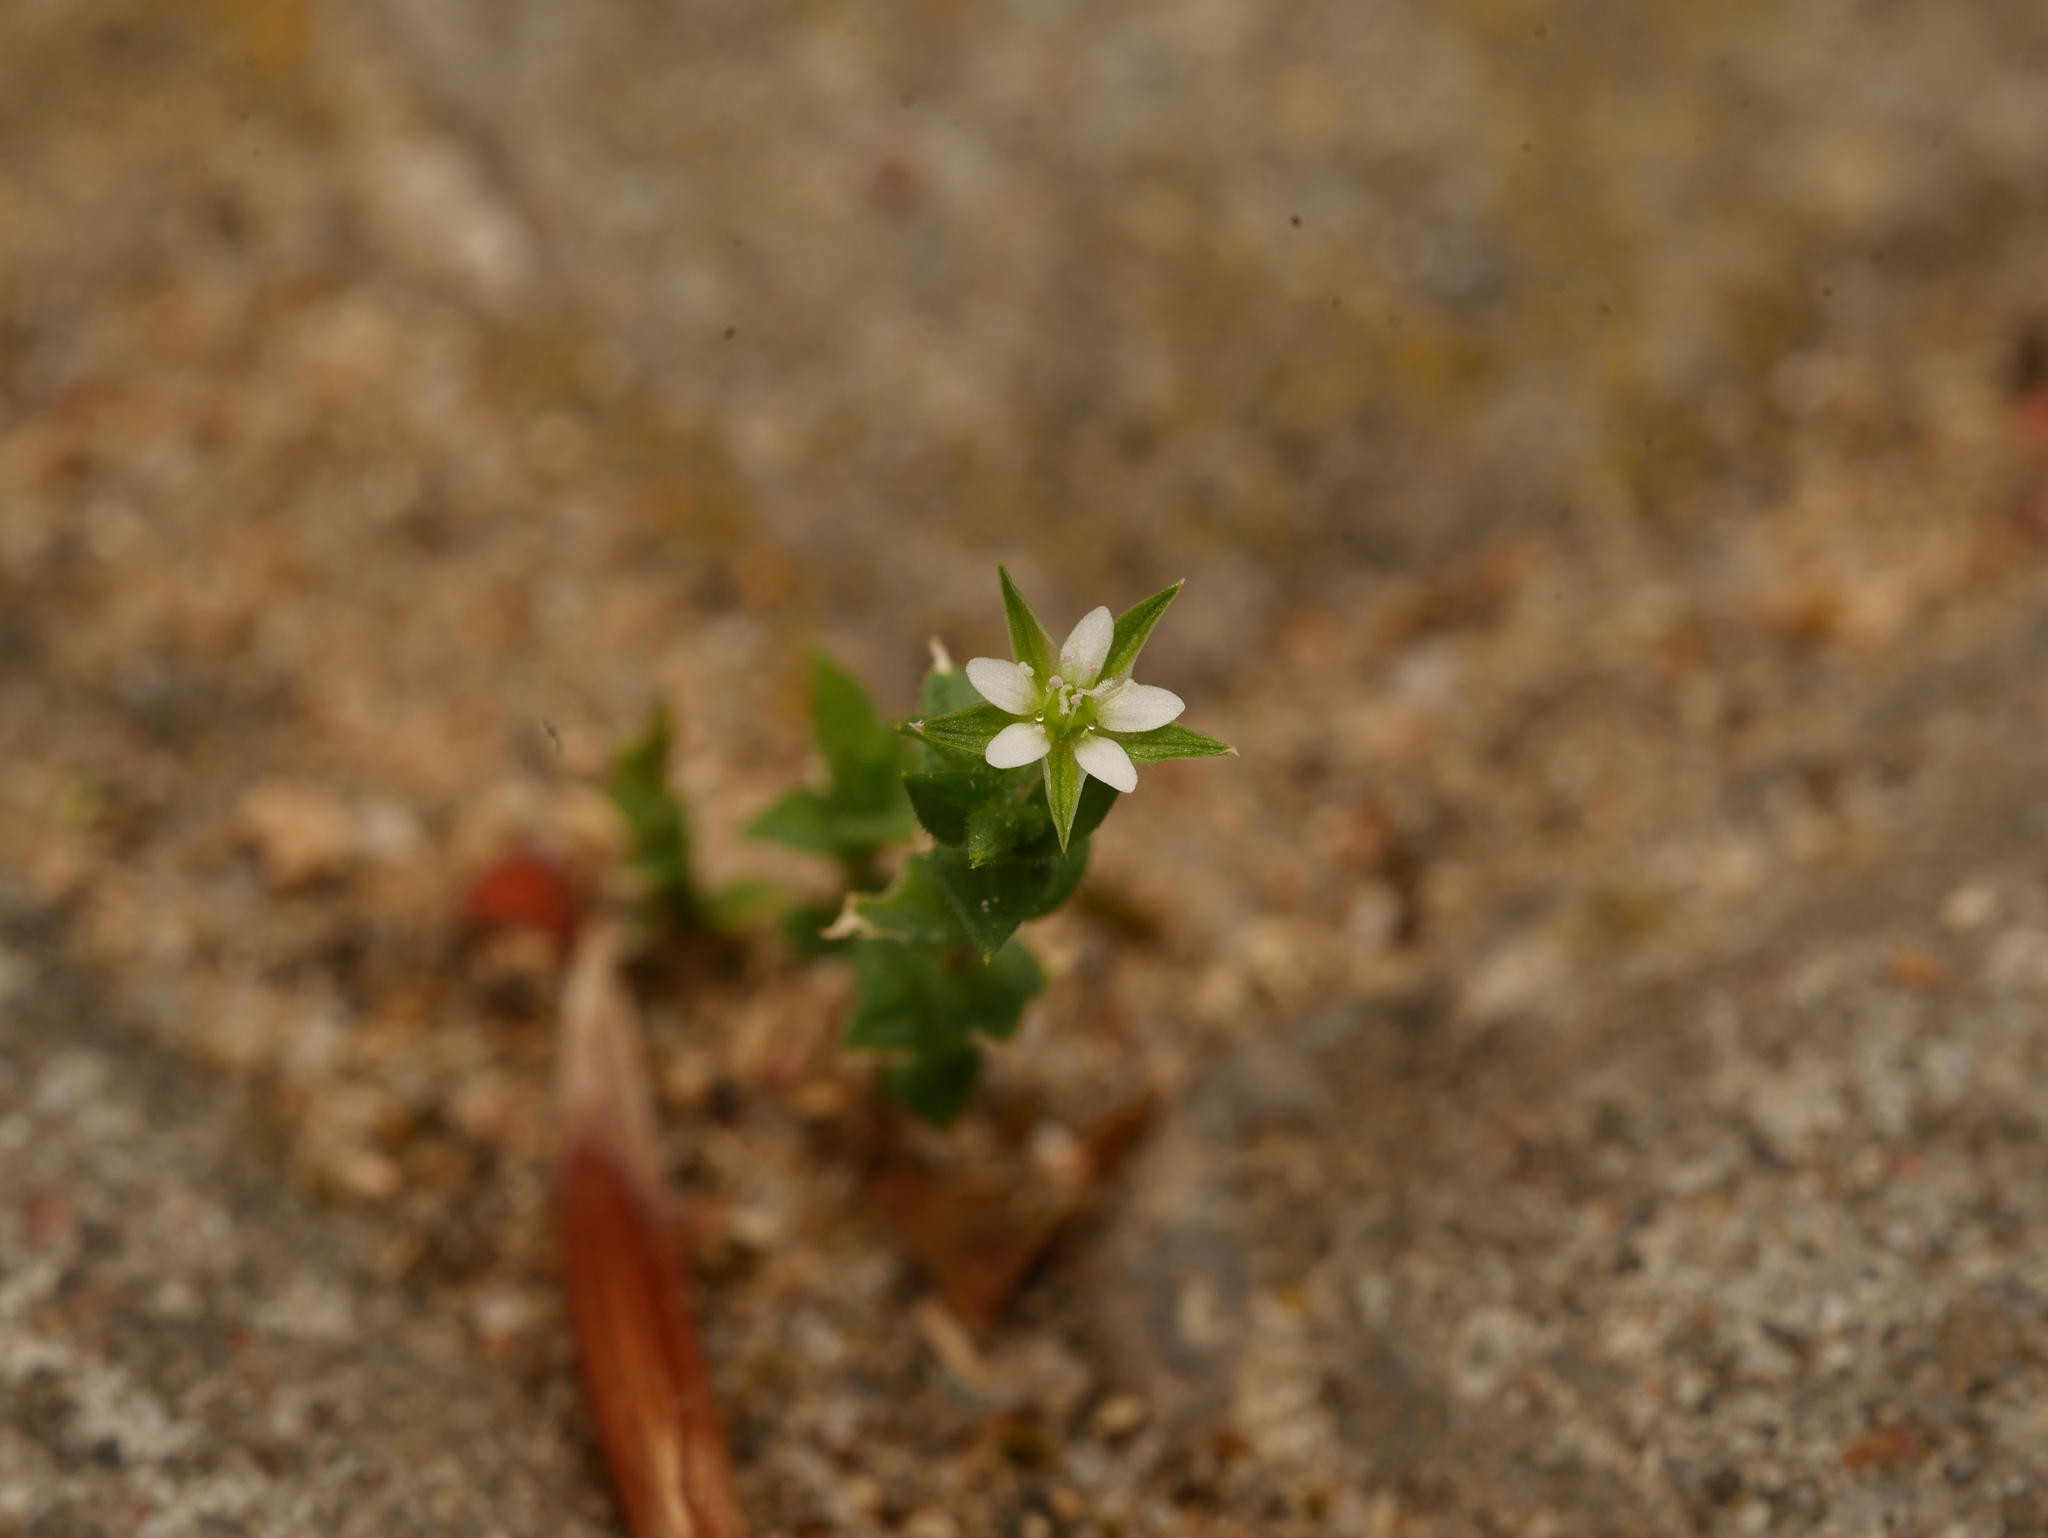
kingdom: Plantae
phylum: Tracheophyta
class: Magnoliopsida
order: Caryophyllales
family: Caryophyllaceae
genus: Arenaria
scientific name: Arenaria serpyllifolia
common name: Thyme-leaved sandwort
